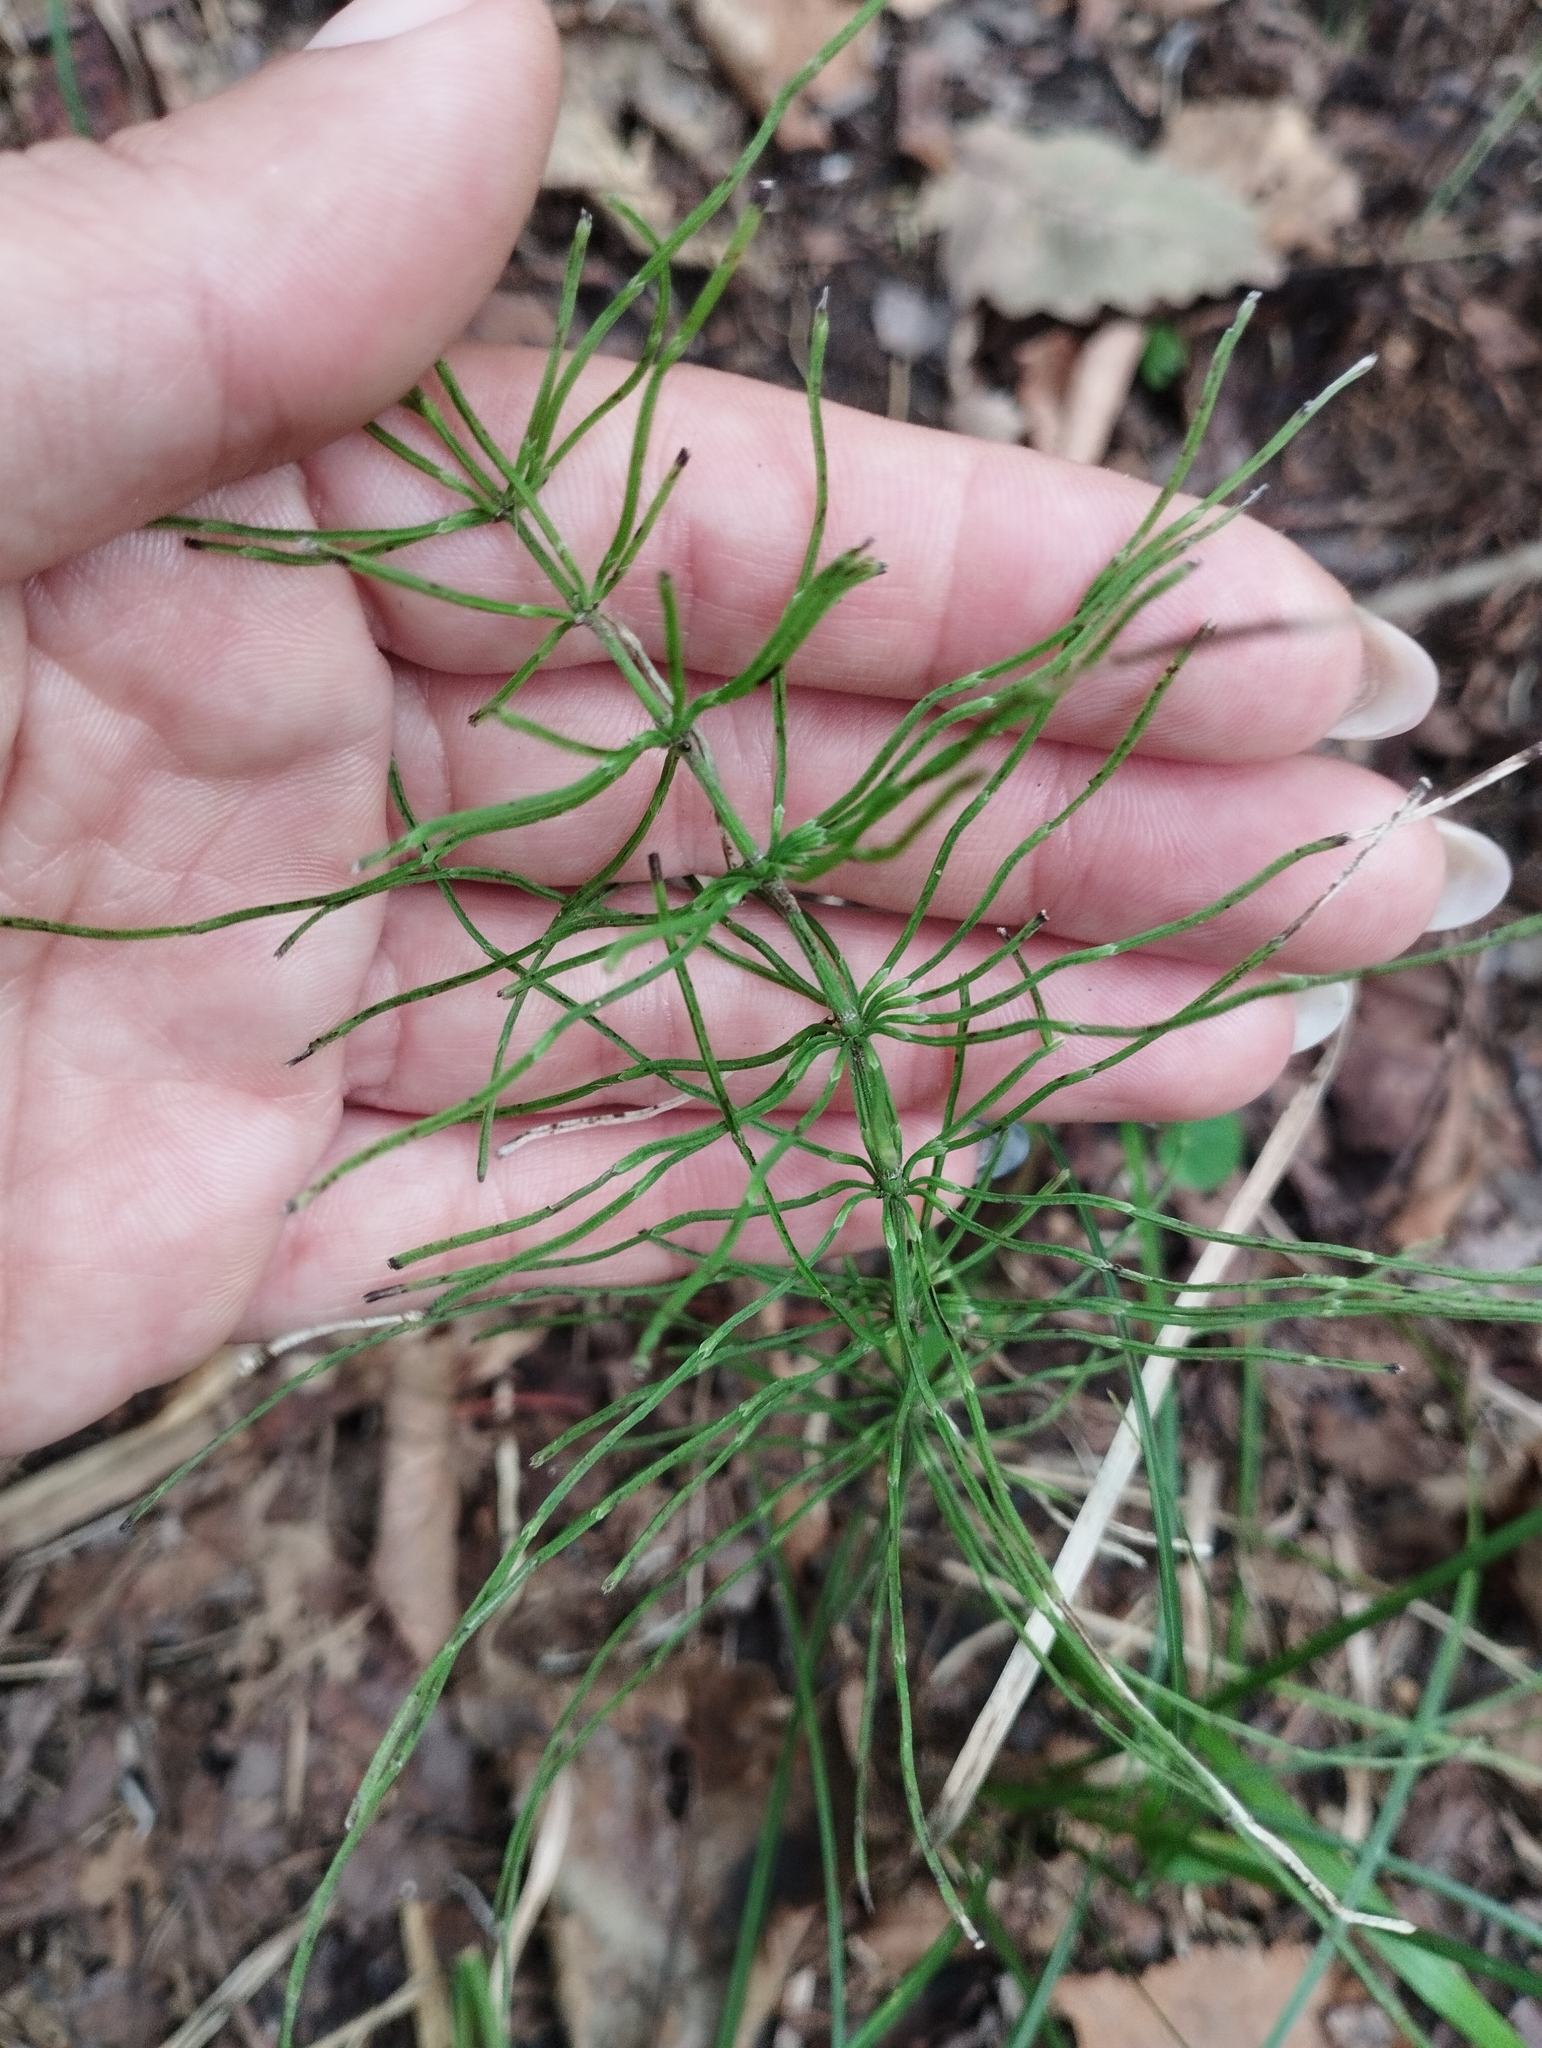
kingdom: Plantae
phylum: Tracheophyta
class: Polypodiopsida
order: Equisetales
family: Equisetaceae
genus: Equisetum
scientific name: Equisetum pratense
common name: Meadow horsetail
